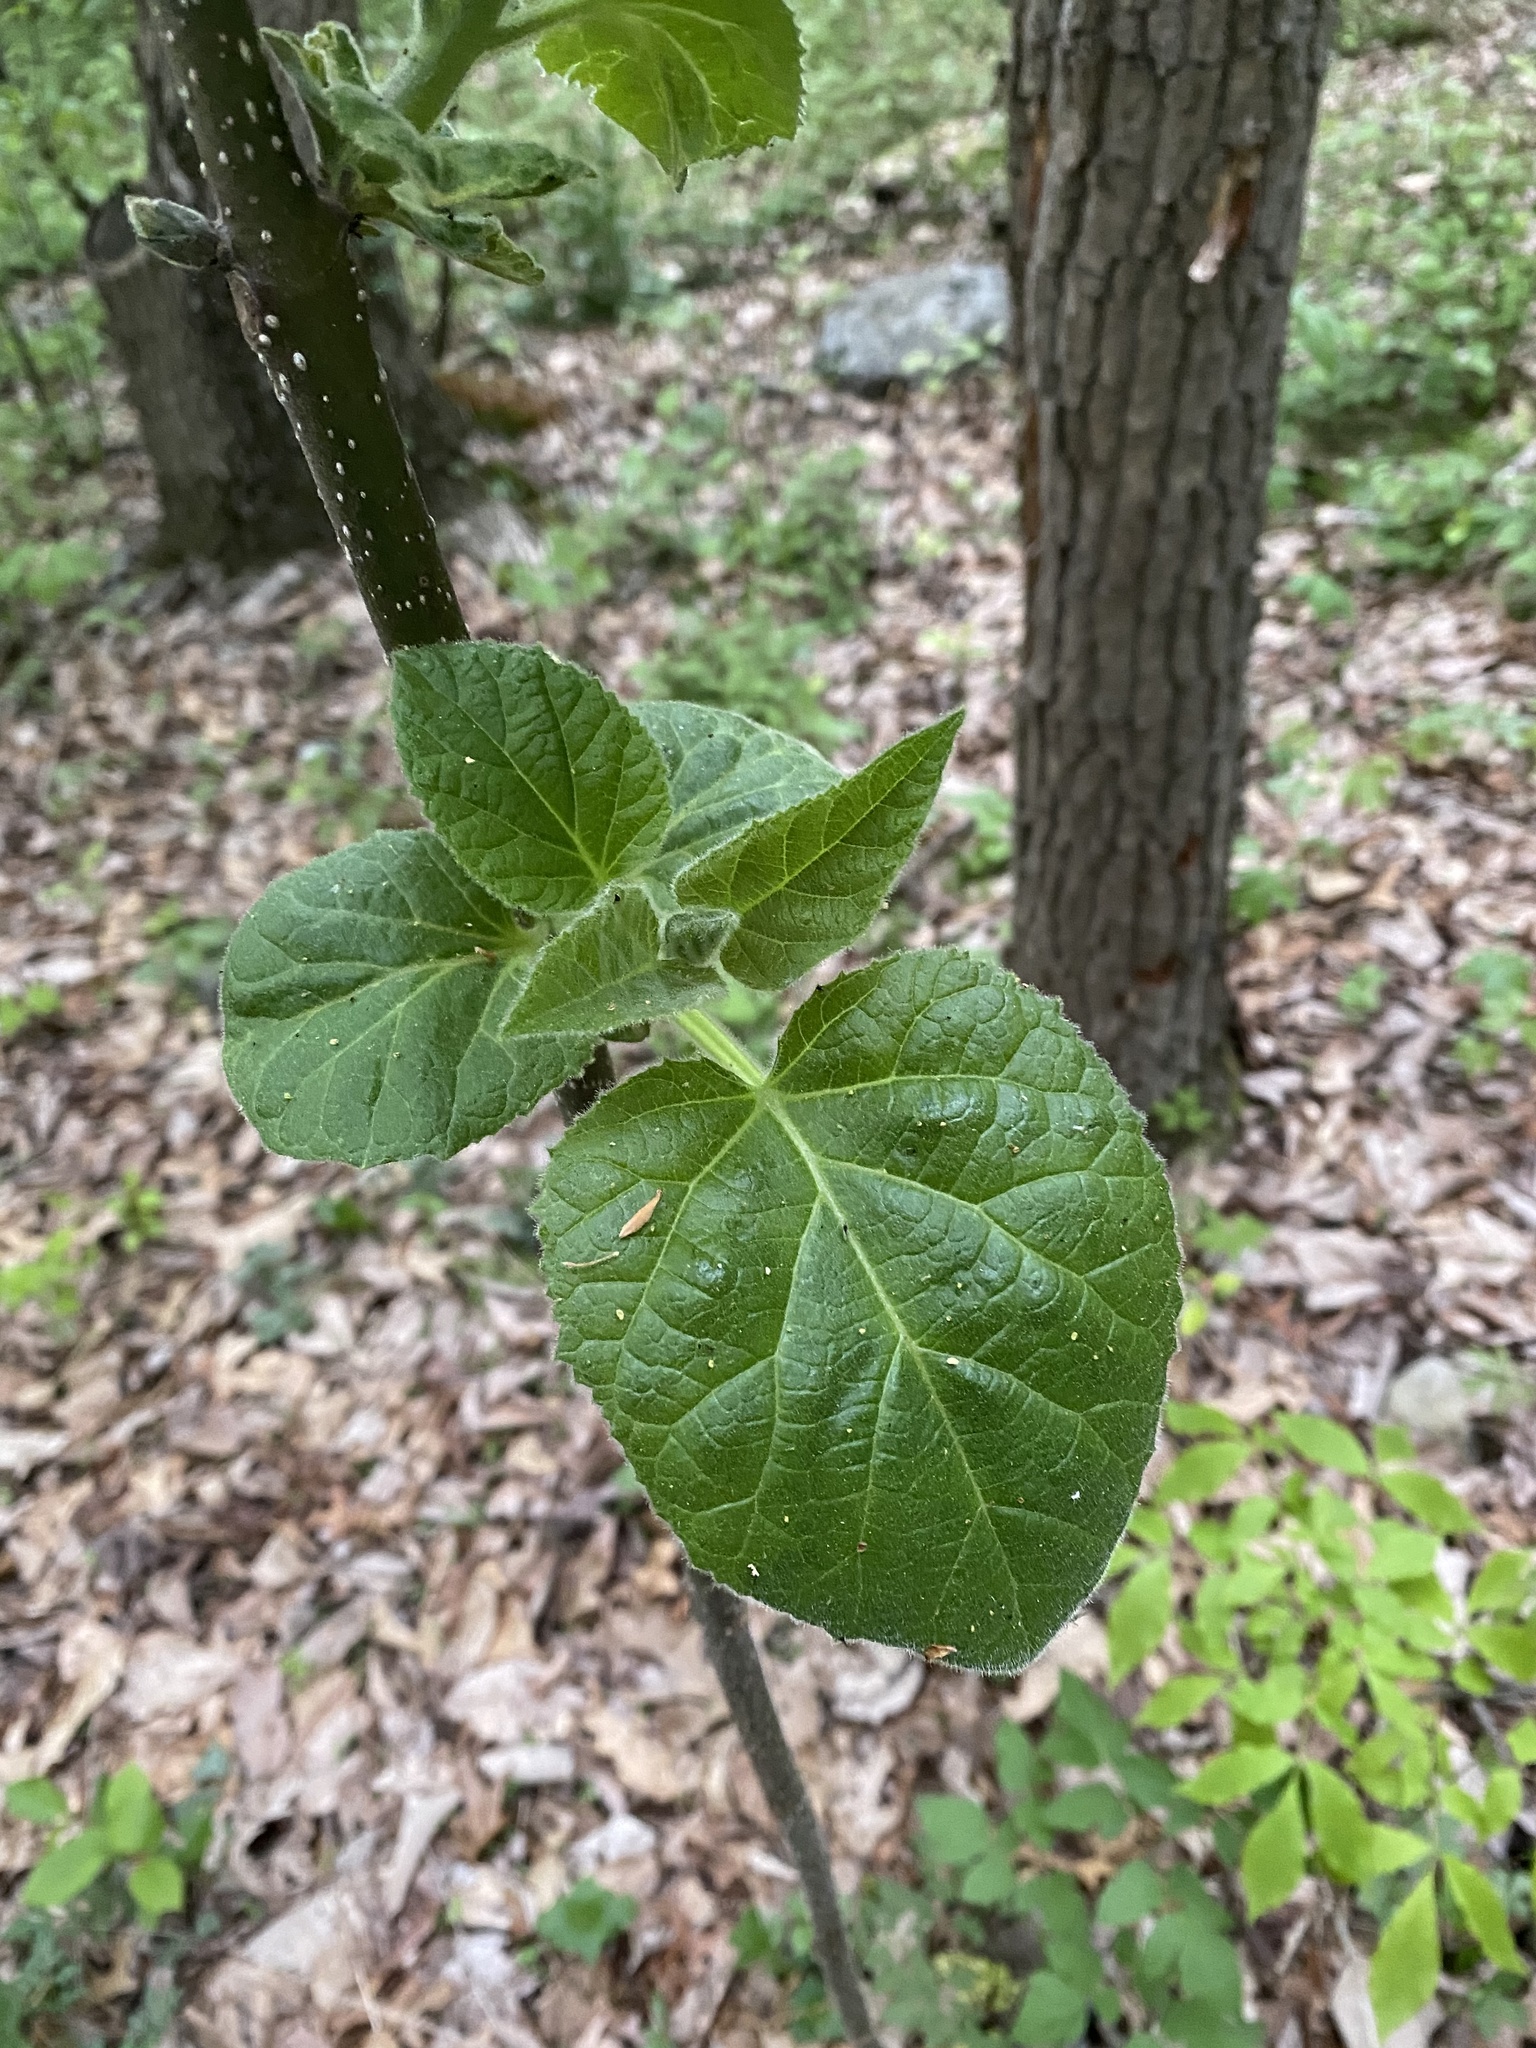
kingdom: Plantae
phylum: Tracheophyta
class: Magnoliopsida
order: Lamiales
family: Paulowniaceae
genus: Paulownia
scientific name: Paulownia tomentosa
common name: Foxglove-tree
